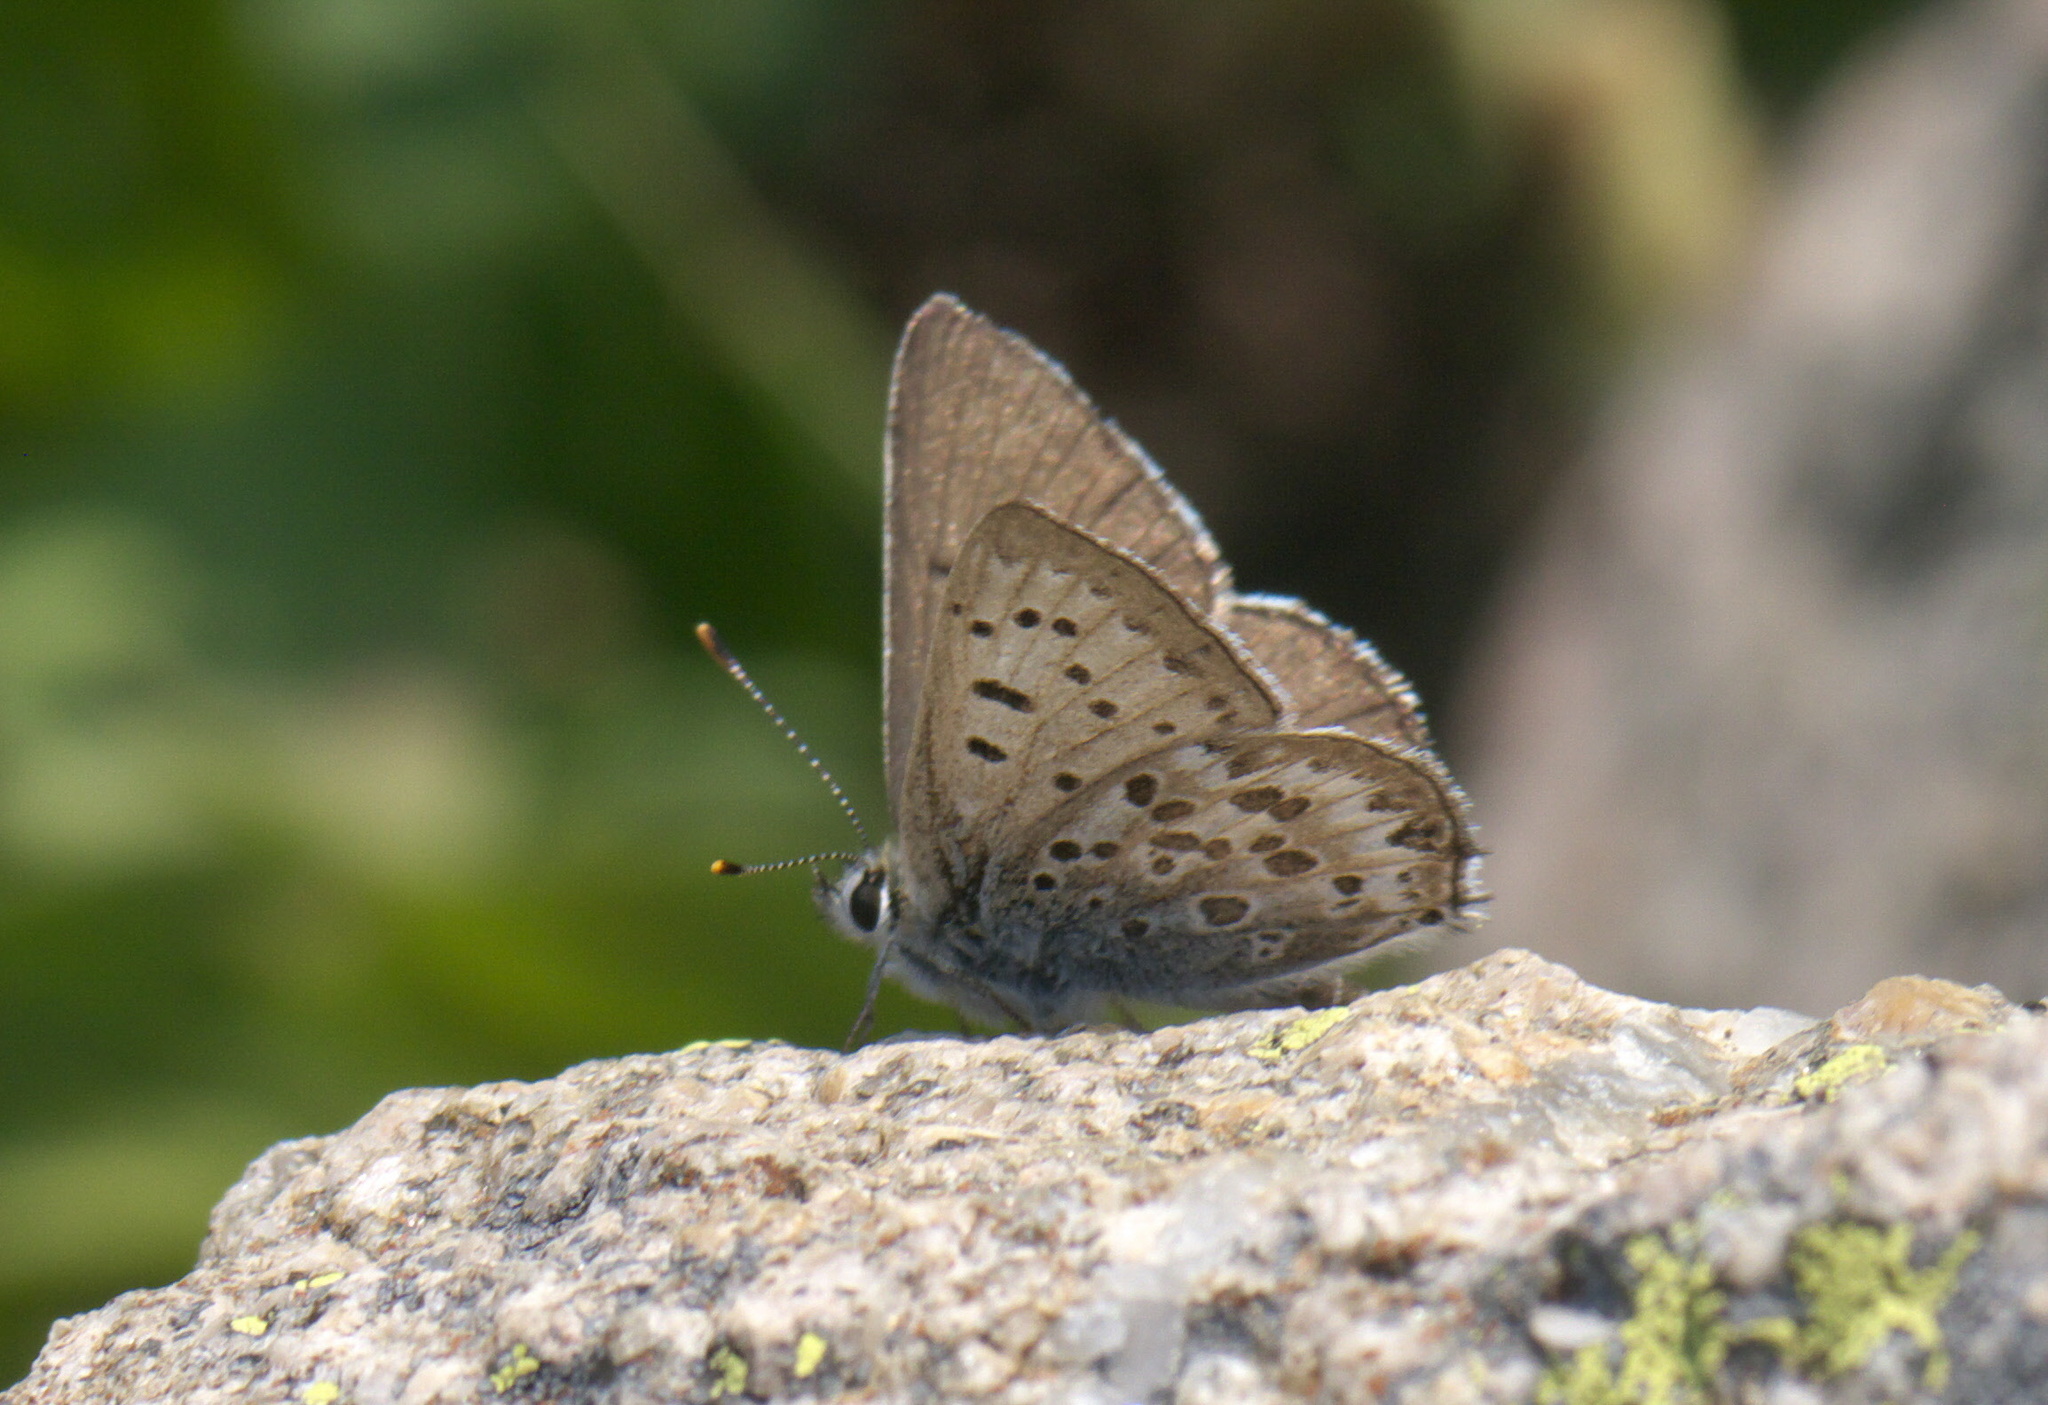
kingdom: Animalia
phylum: Arthropoda
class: Insecta
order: Lepidoptera
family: Lycaenidae
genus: Tharsalea
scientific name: Tharsalea editha
